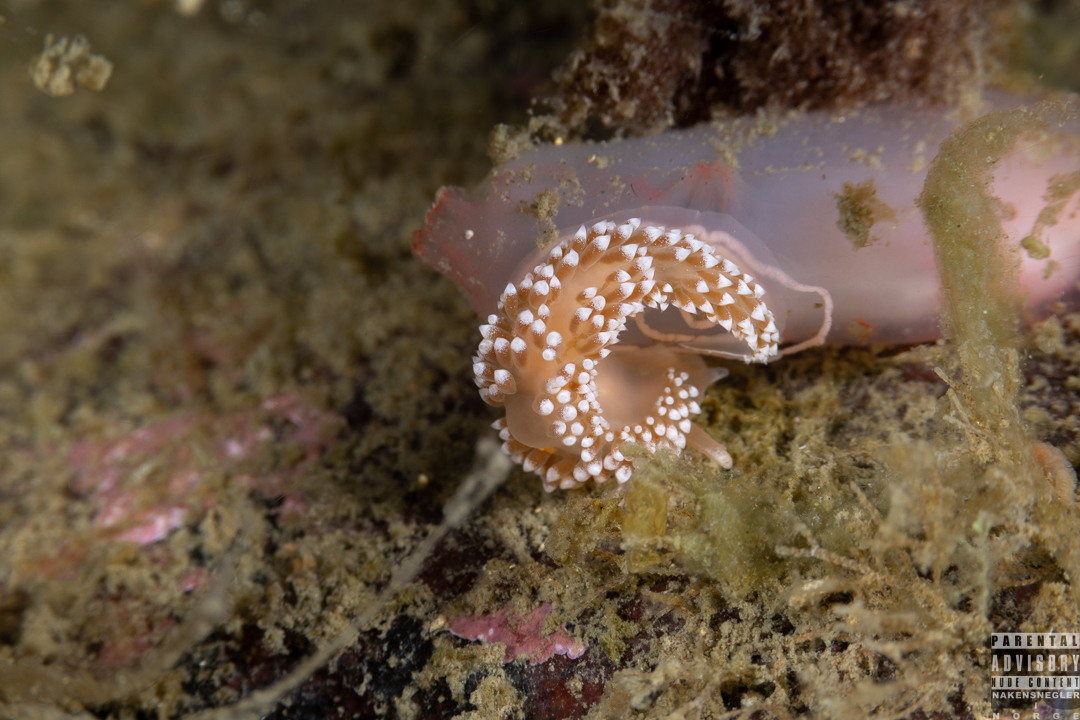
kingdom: Animalia
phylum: Mollusca
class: Gastropoda
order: Nudibranchia
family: Coryphellidae
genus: Coryphella
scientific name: Coryphella verrucosa
